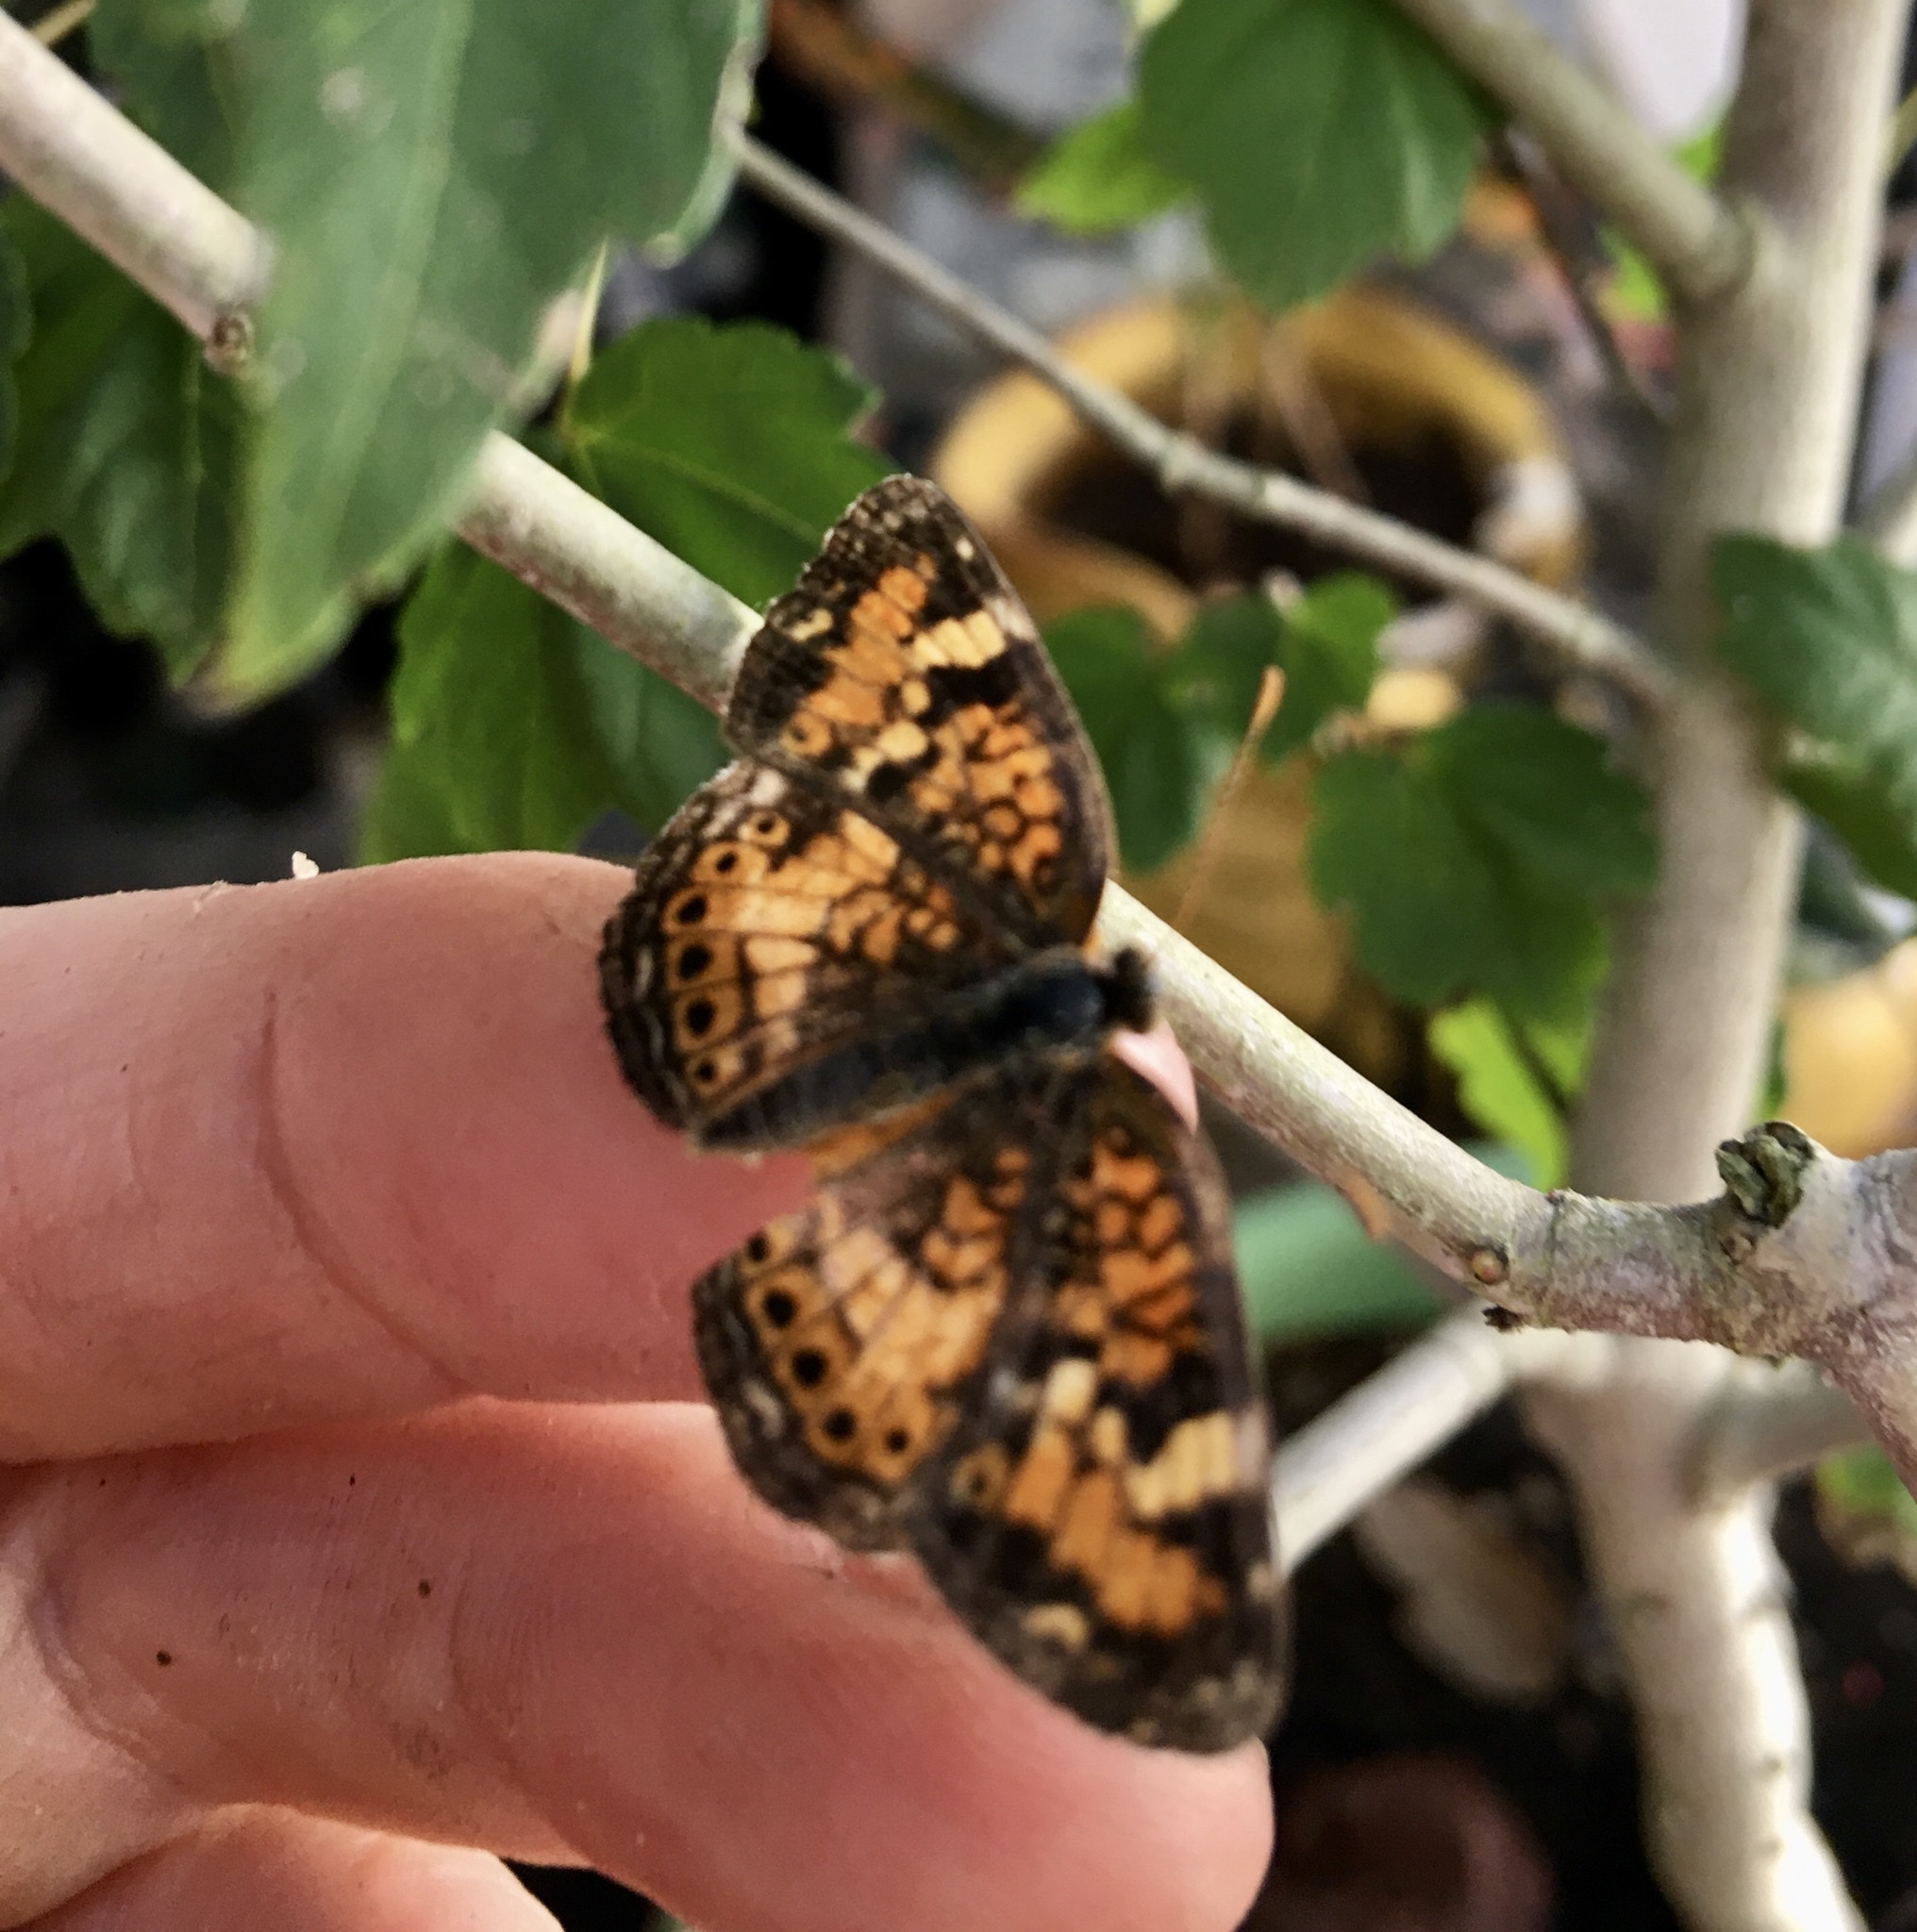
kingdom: Animalia
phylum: Arthropoda
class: Insecta
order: Lepidoptera
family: Nymphalidae
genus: Phyciodes
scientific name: Phyciodes tharos
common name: Pearl crescent
